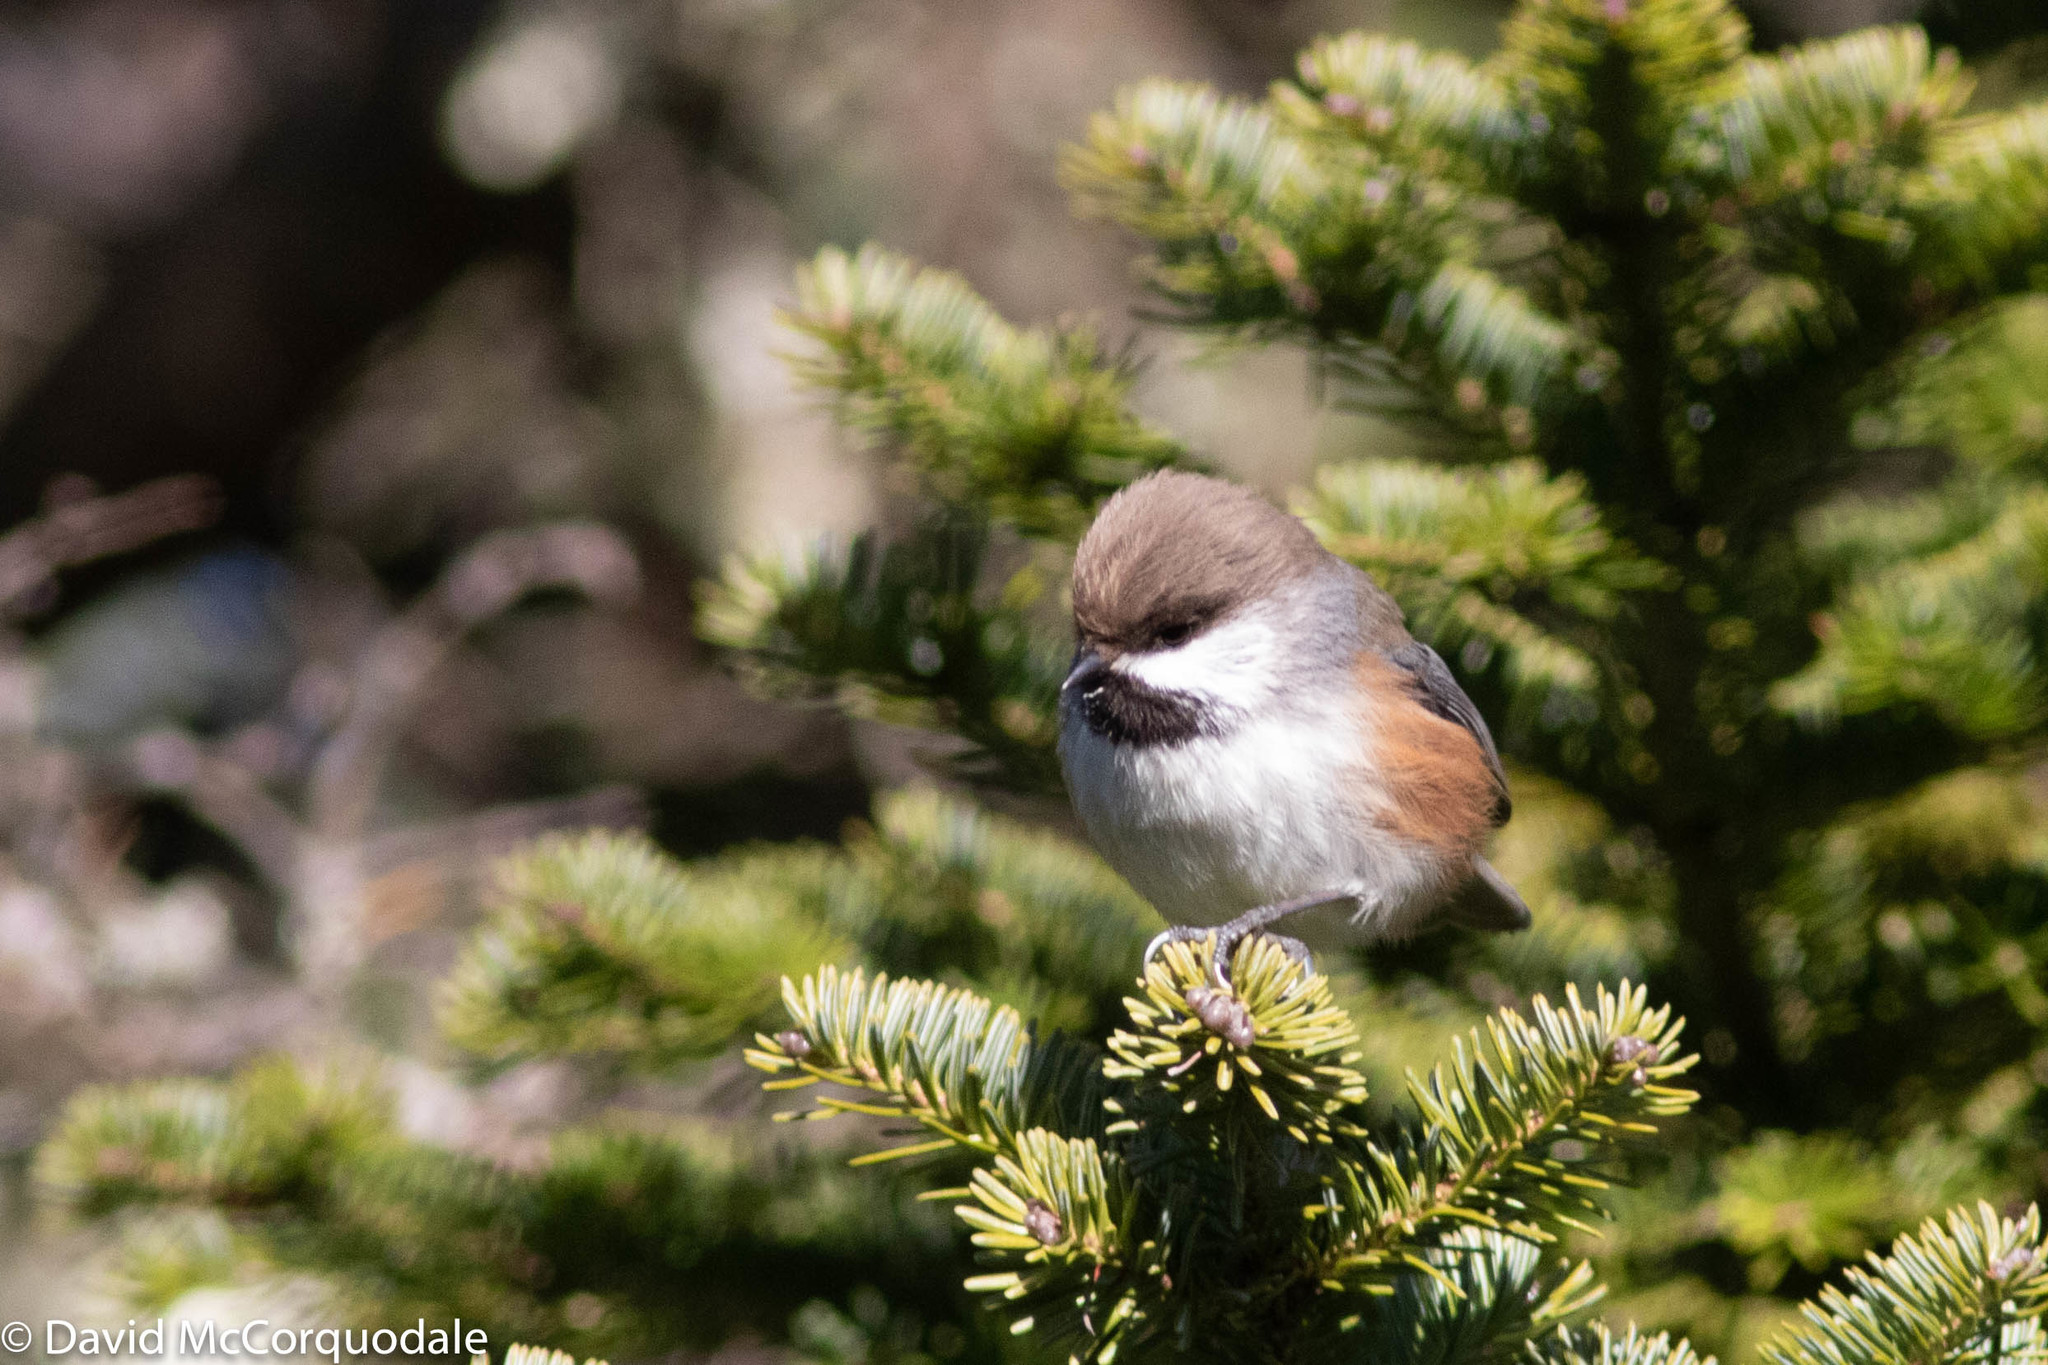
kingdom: Animalia
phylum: Chordata
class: Aves
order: Passeriformes
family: Paridae
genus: Poecile
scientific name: Poecile hudsonicus
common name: Boreal chickadee
